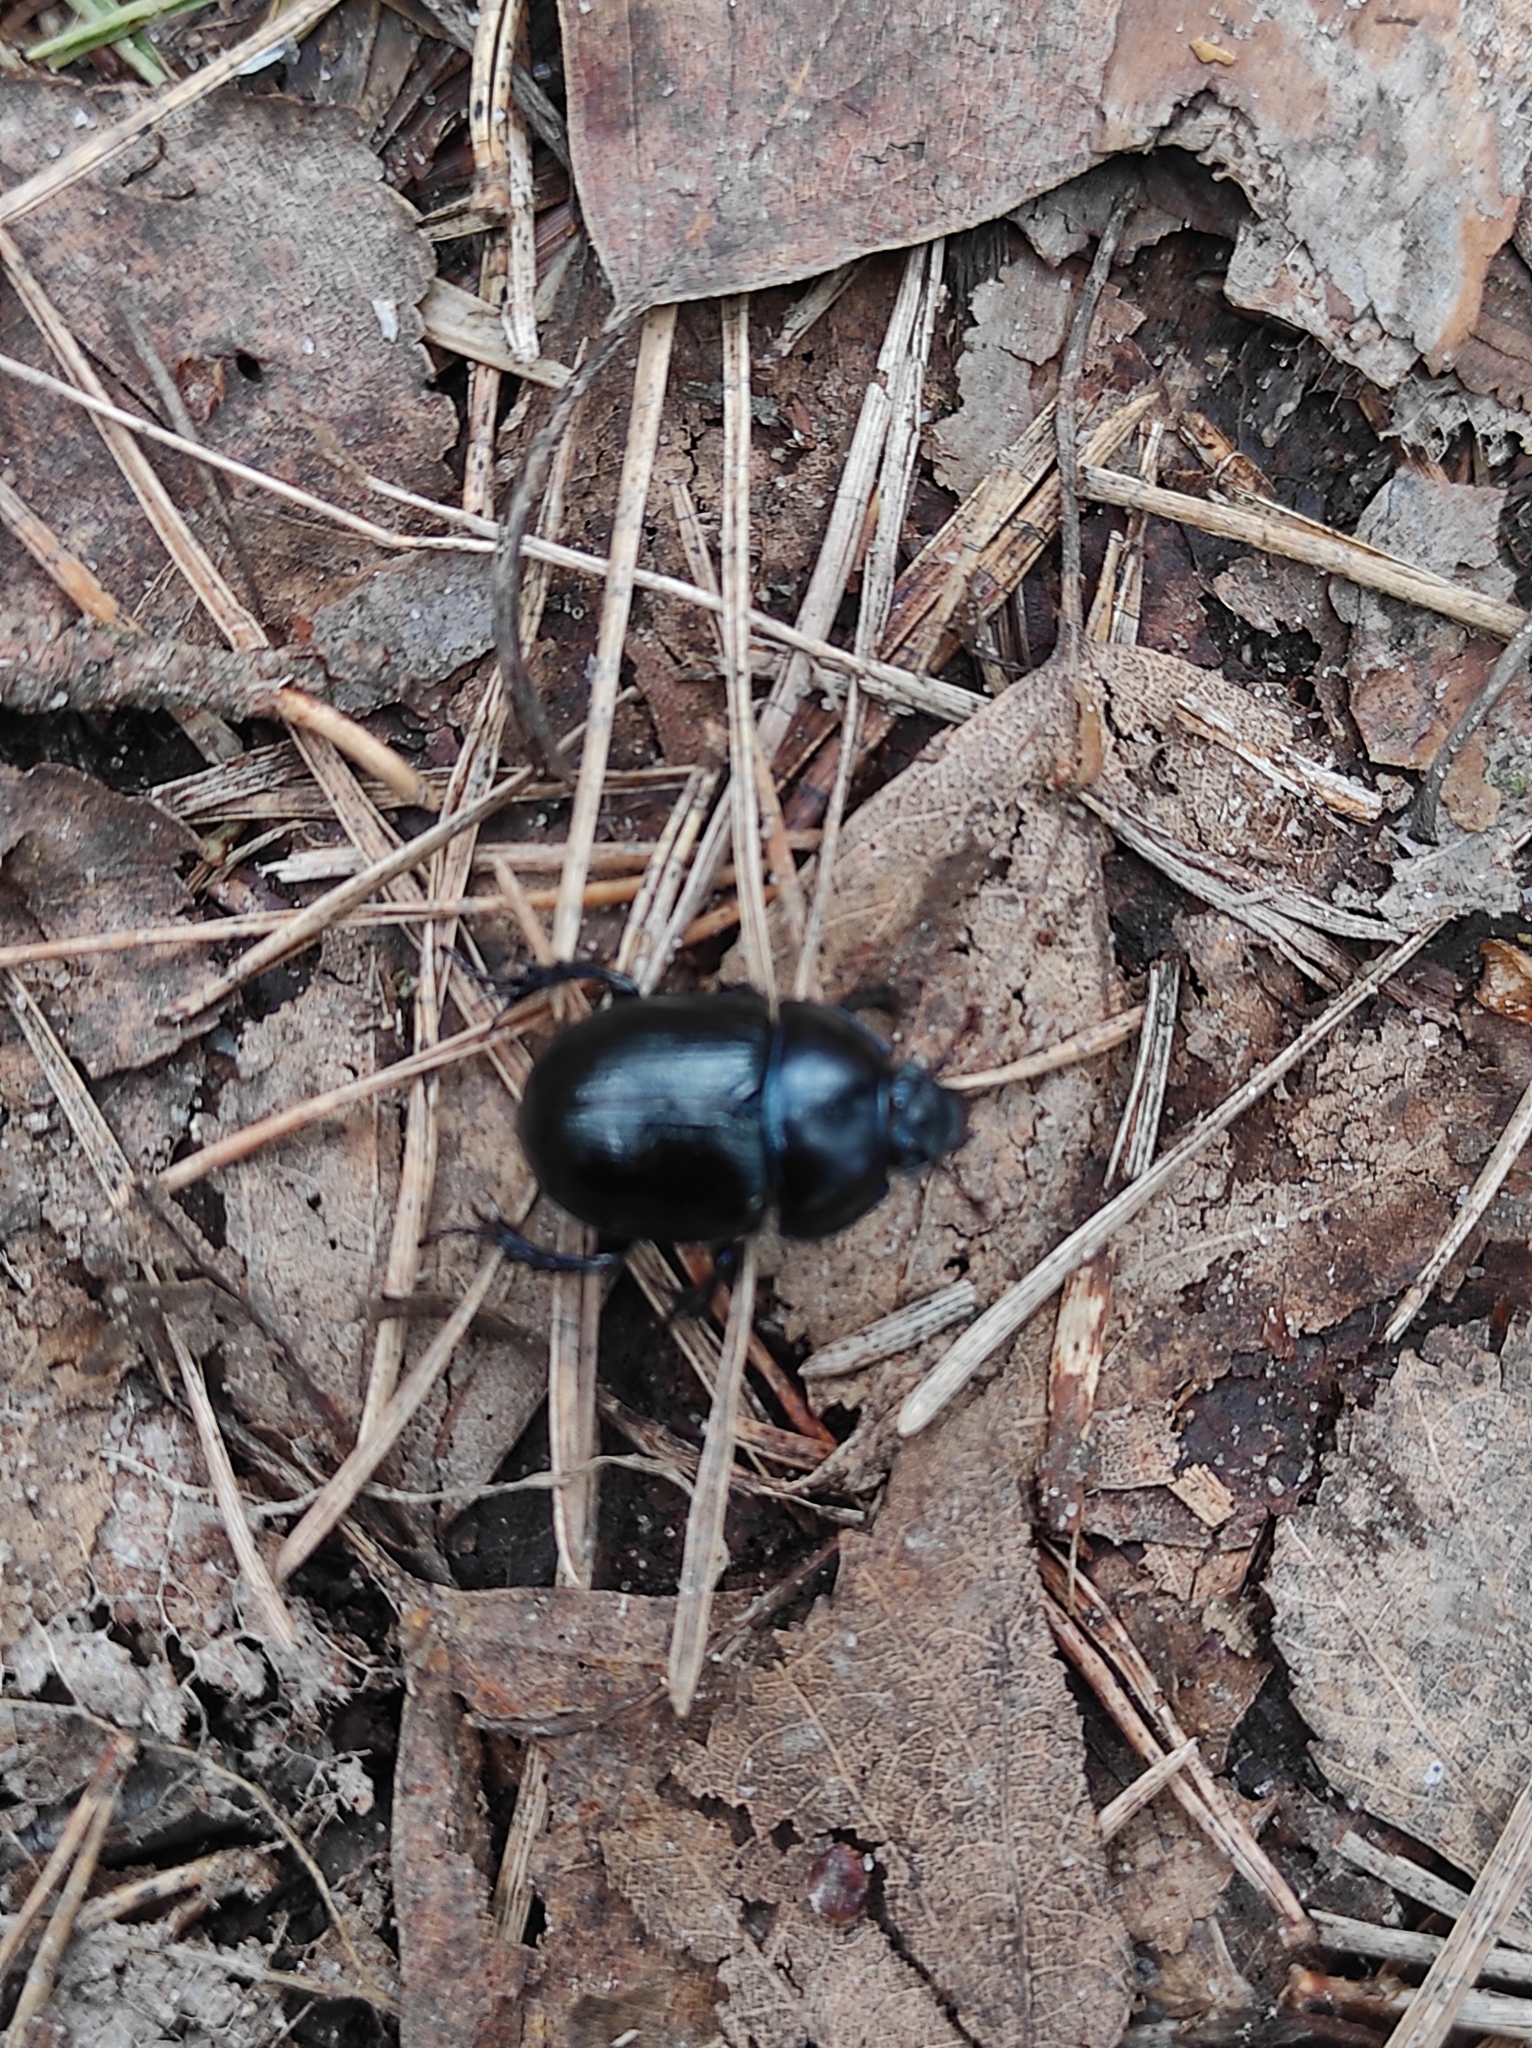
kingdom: Animalia
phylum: Arthropoda
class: Insecta
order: Coleoptera
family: Geotrupidae
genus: Anoplotrupes
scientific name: Anoplotrupes stercorosus
